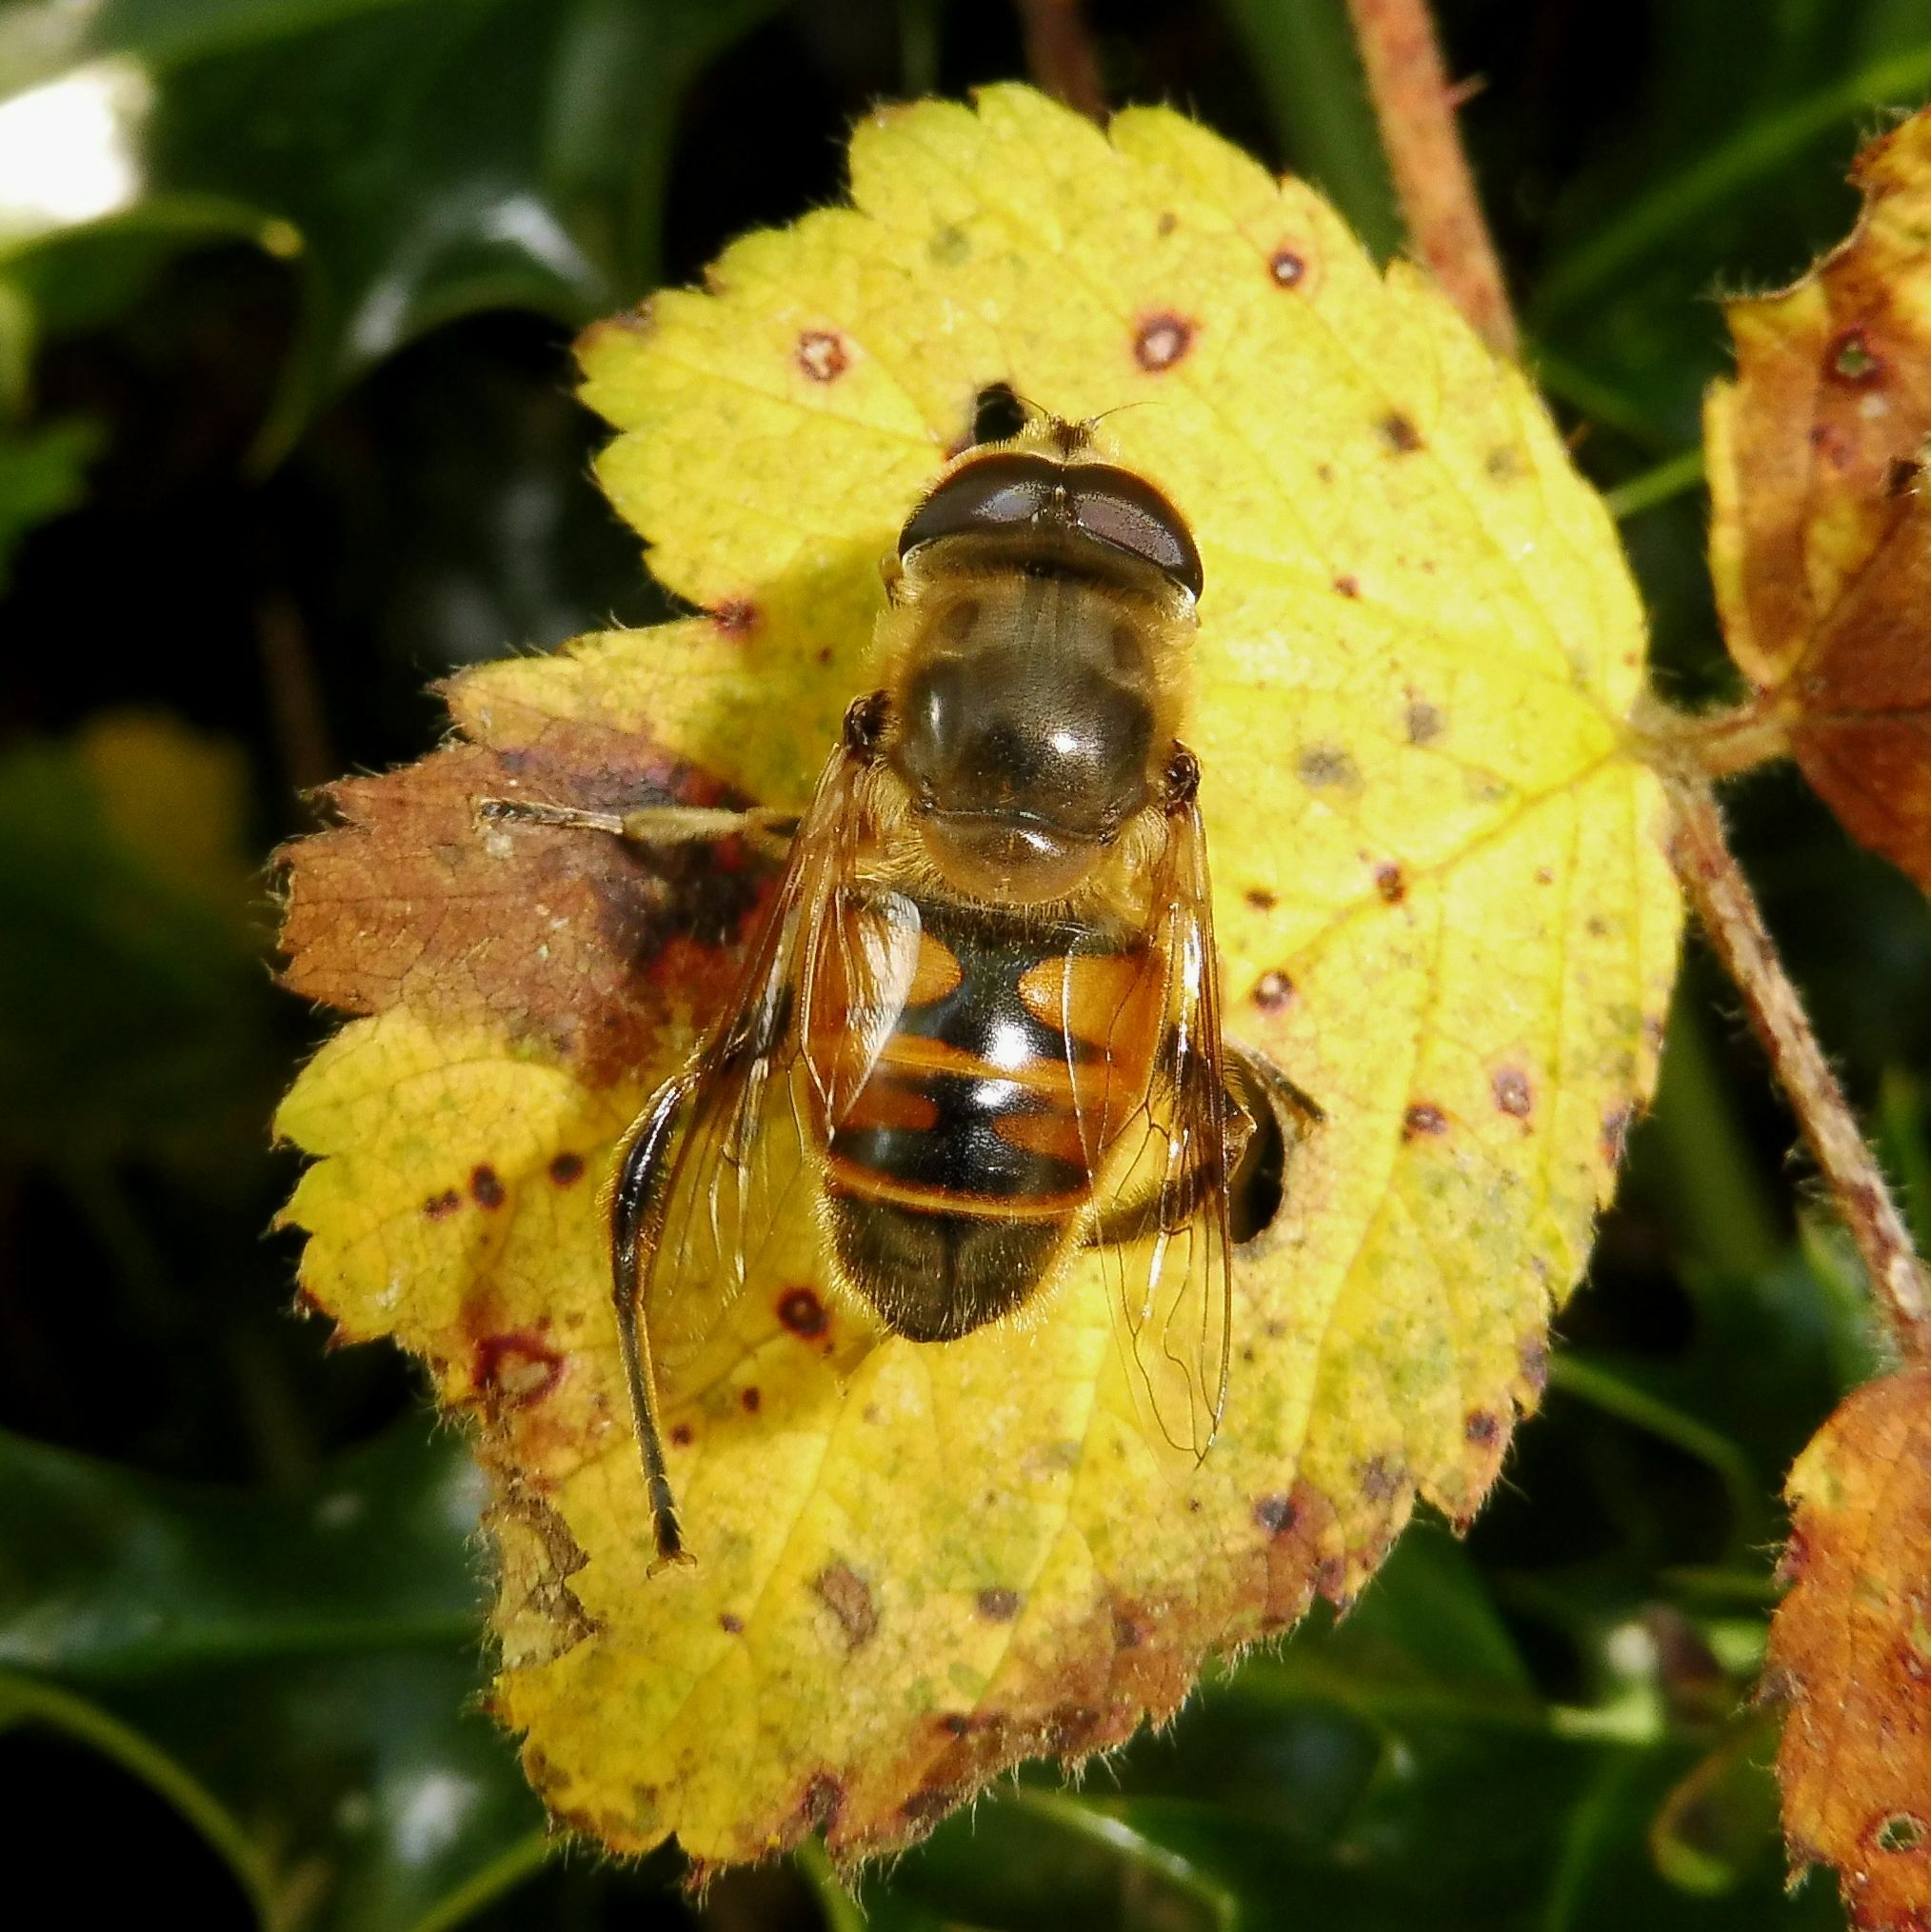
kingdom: Animalia
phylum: Arthropoda
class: Insecta
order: Diptera
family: Syrphidae
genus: Eristalis
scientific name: Eristalis tenax
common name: Drone fly
